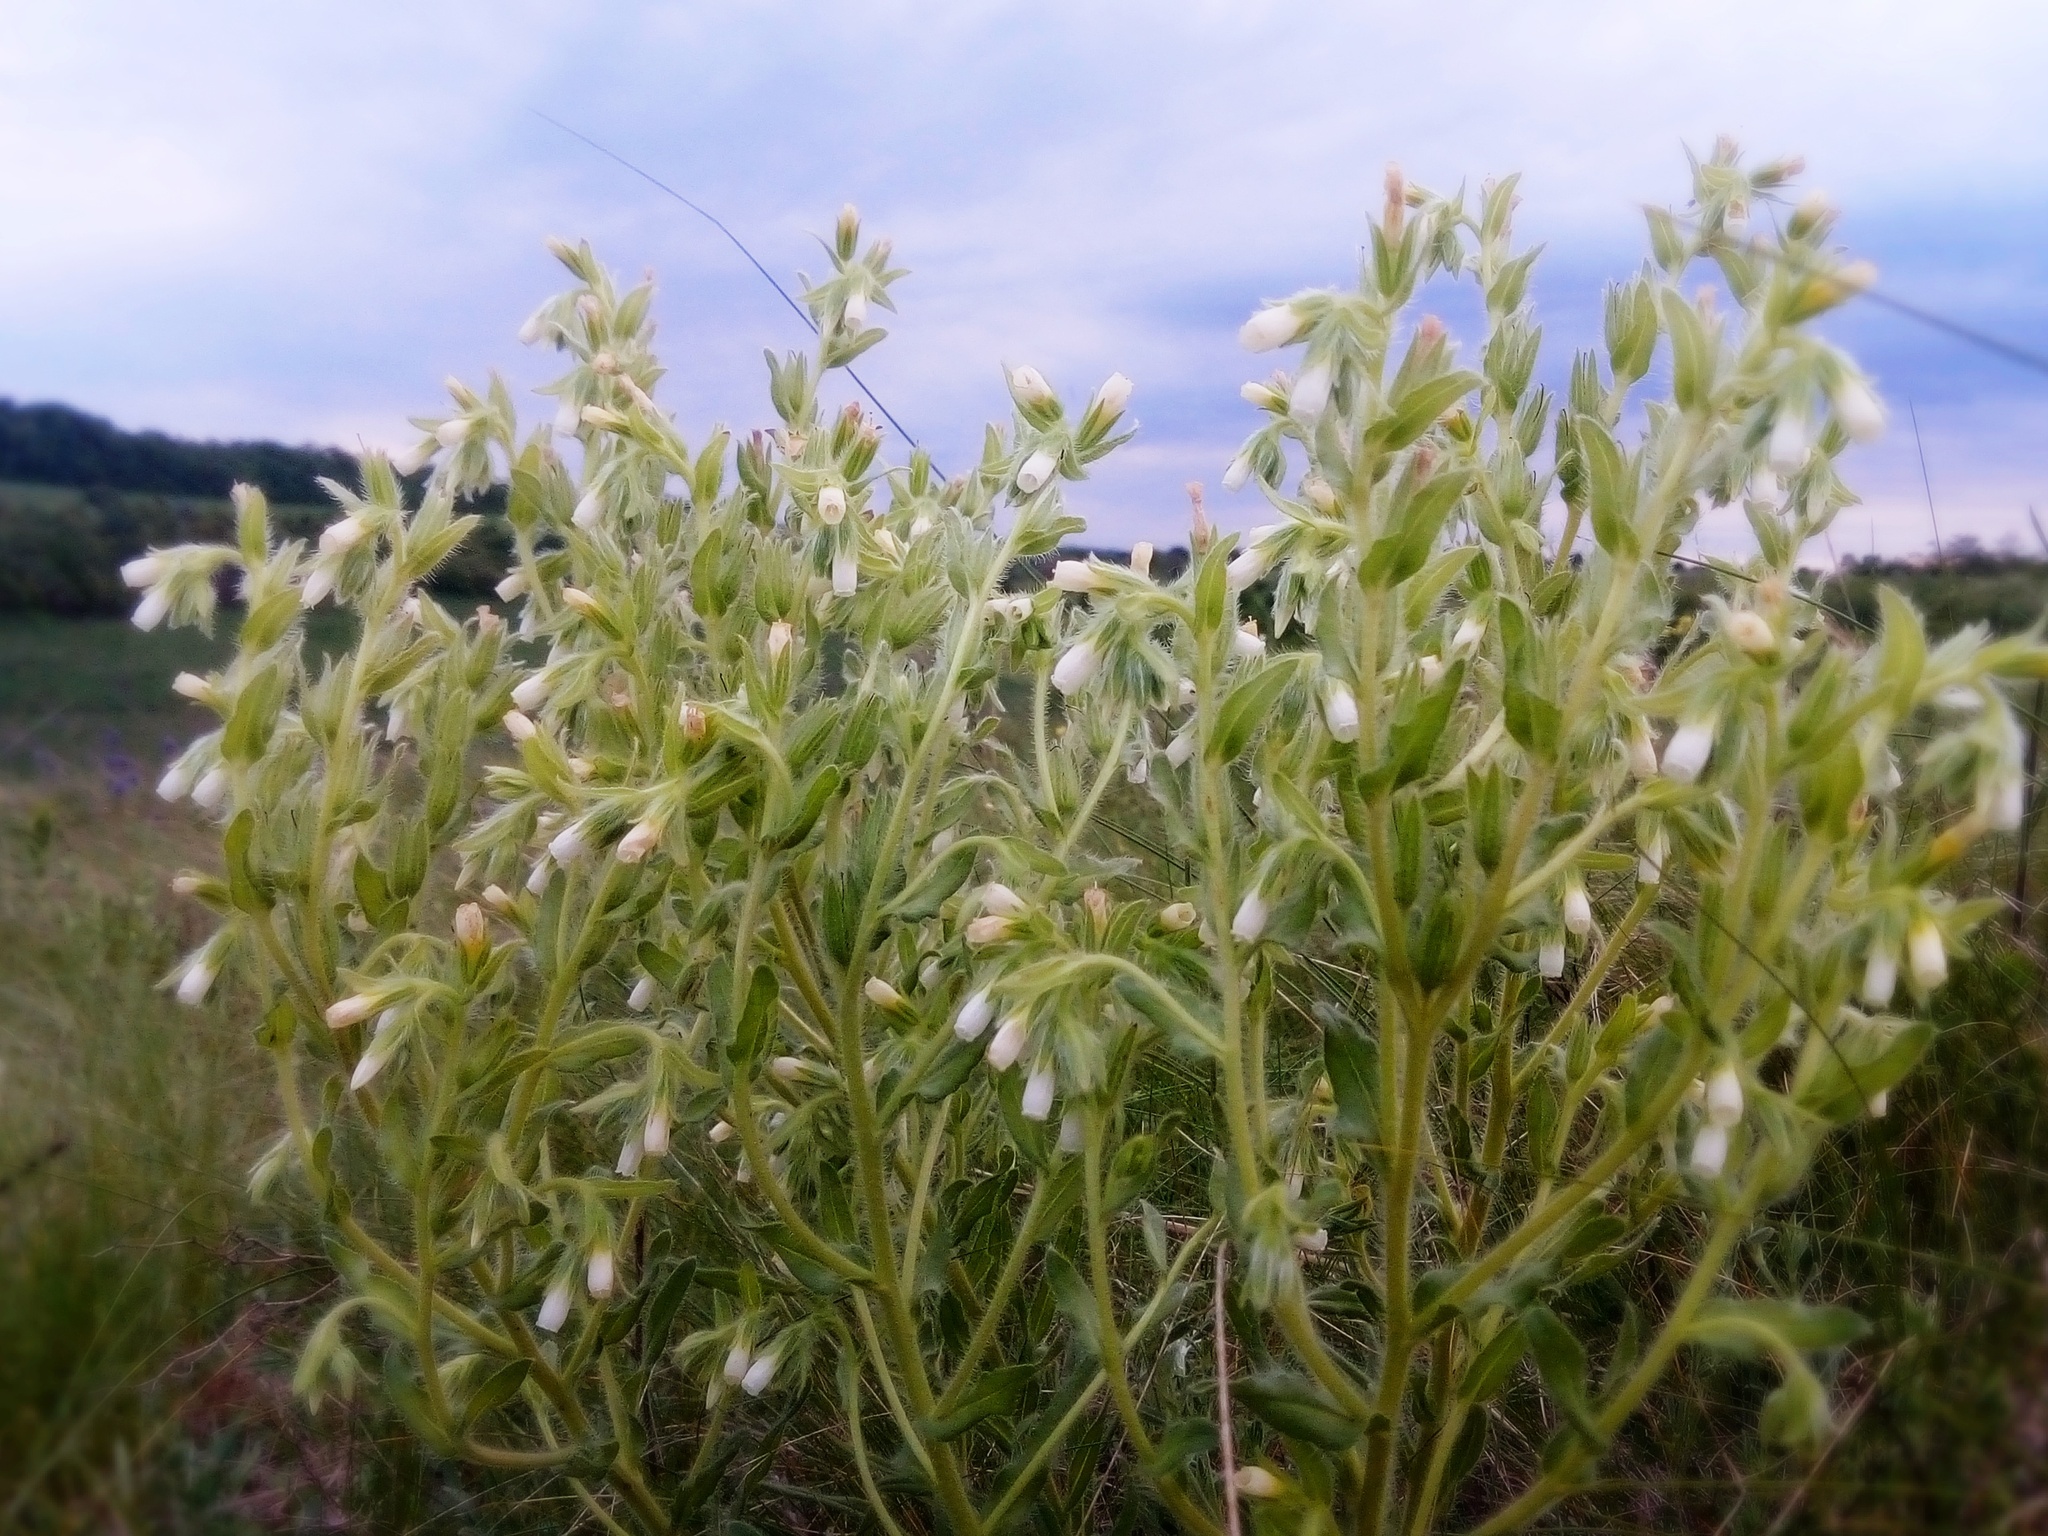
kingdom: Plantae
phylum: Tracheophyta
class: Magnoliopsida
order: Boraginales
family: Boraginaceae
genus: Onosma
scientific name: Onosma tinctoria
